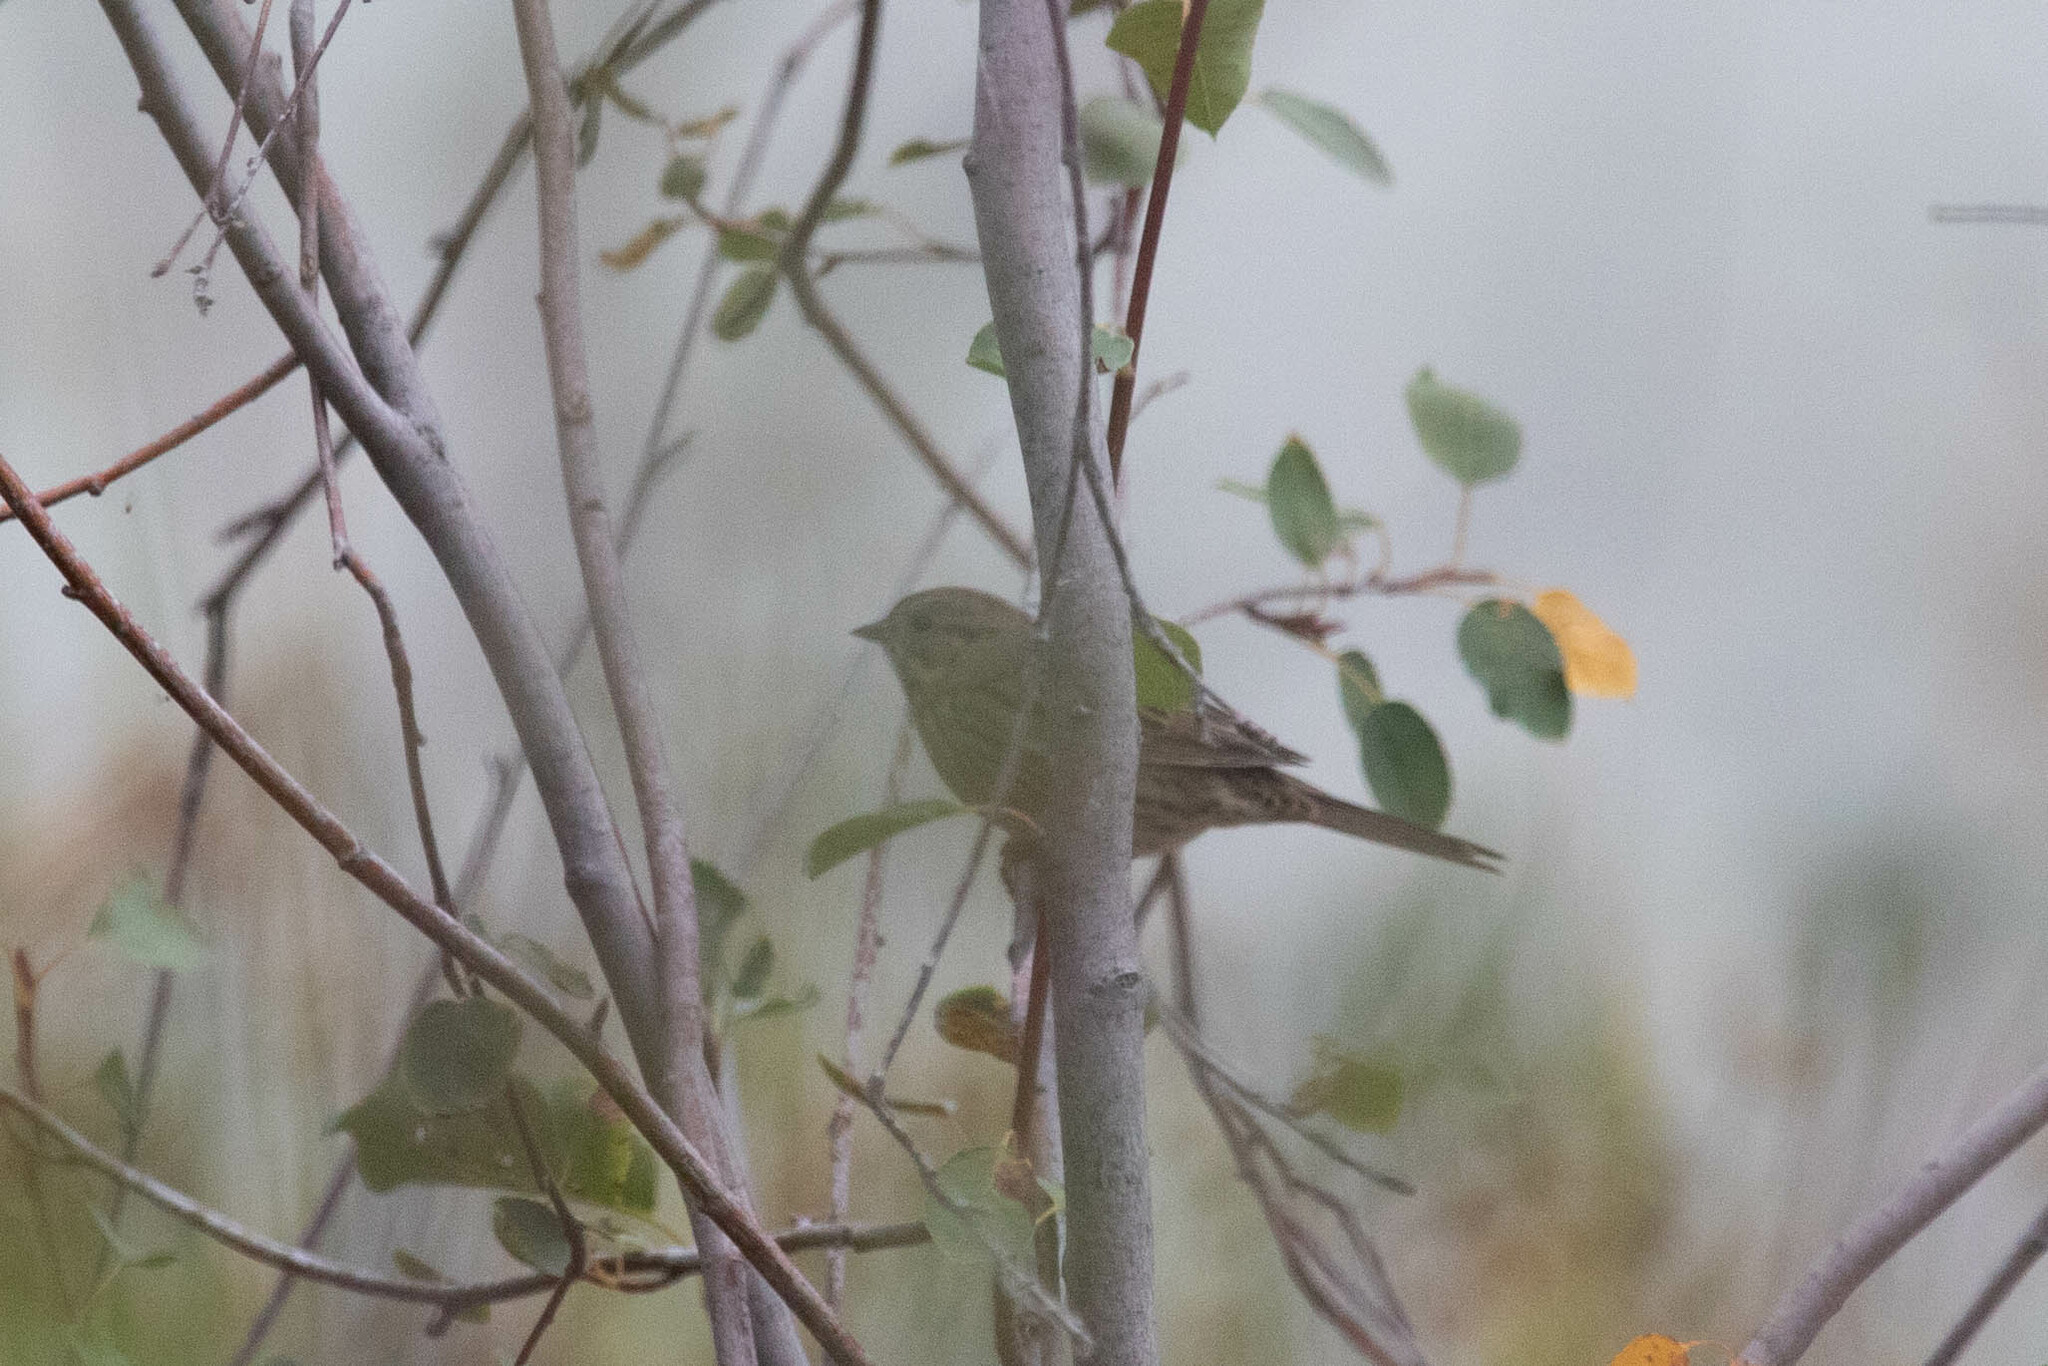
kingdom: Animalia
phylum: Chordata
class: Aves
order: Passeriformes
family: Passerellidae
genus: Melospiza
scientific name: Melospiza melodia
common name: Song sparrow
